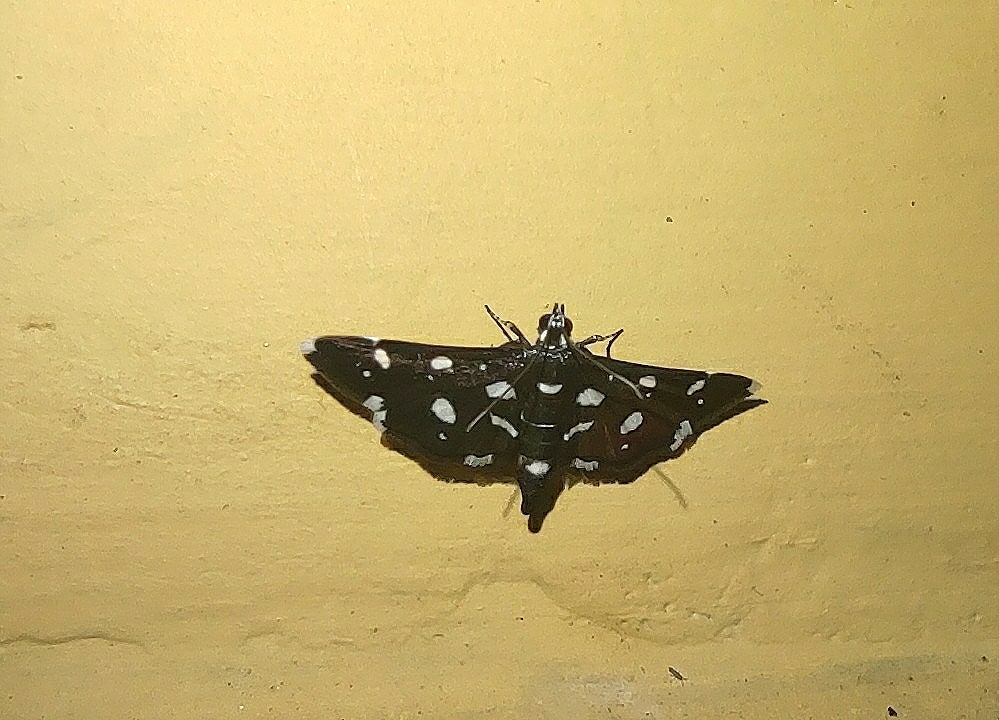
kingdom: Animalia
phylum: Arthropoda
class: Insecta
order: Lepidoptera
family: Crambidae
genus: Bocchoris
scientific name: Bocchoris inspersalis
